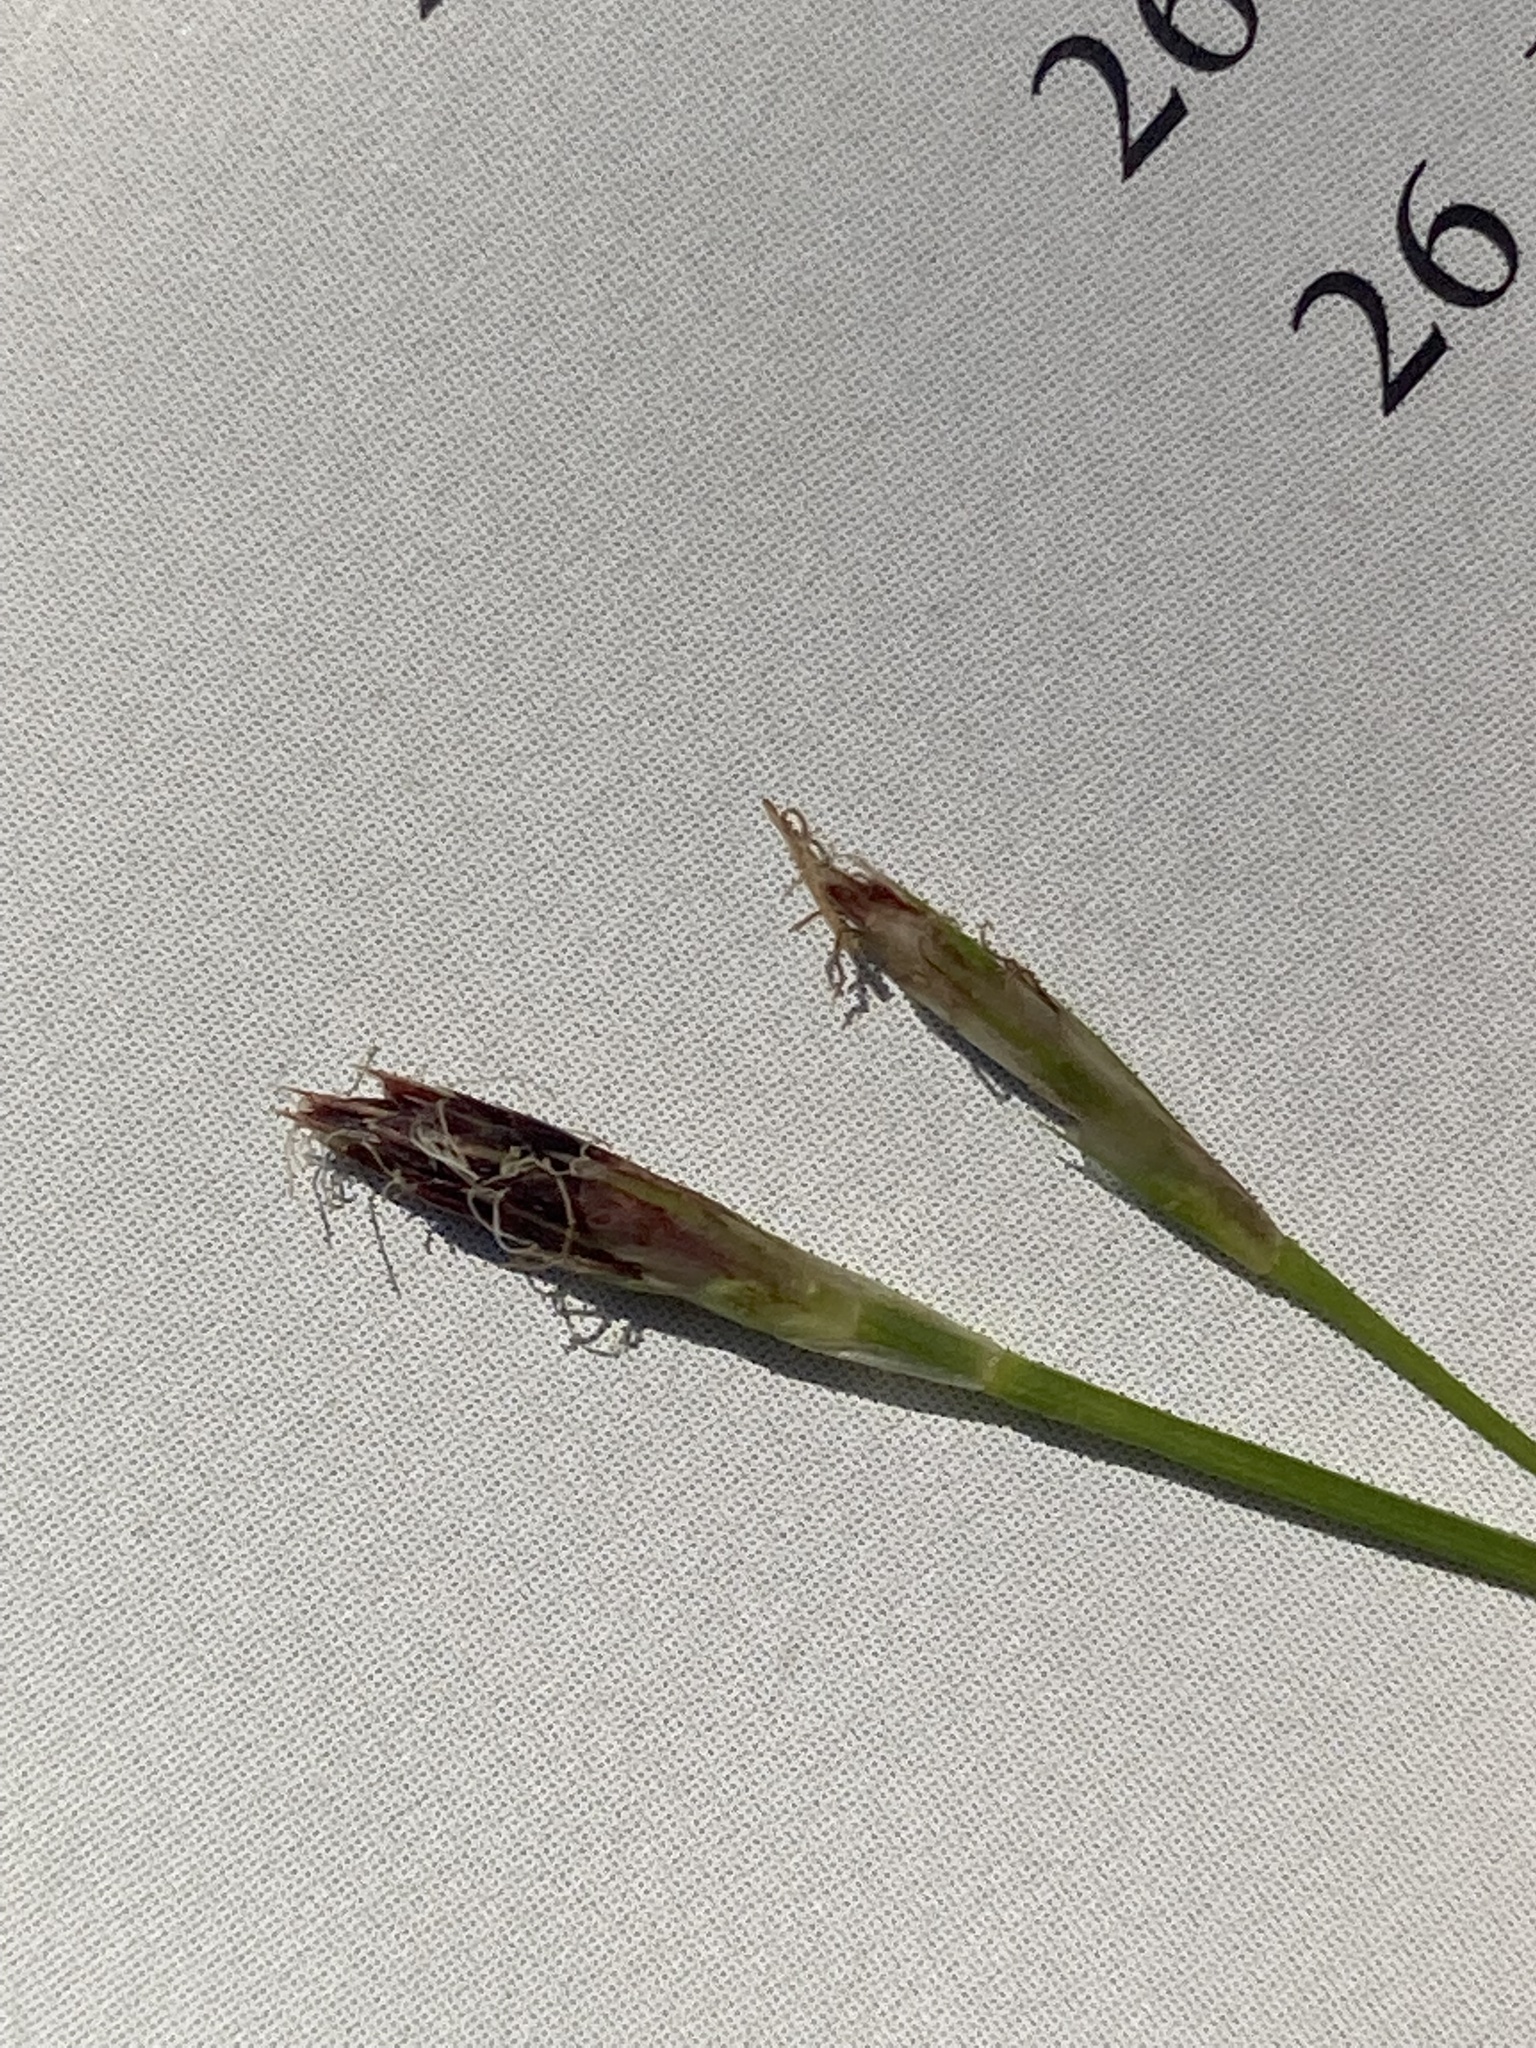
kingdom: Plantae
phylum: Tracheophyta
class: Liliopsida
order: Poales
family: Cyperaceae
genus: Carex
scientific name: Carex pedunculata
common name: Pedunculate sedge
